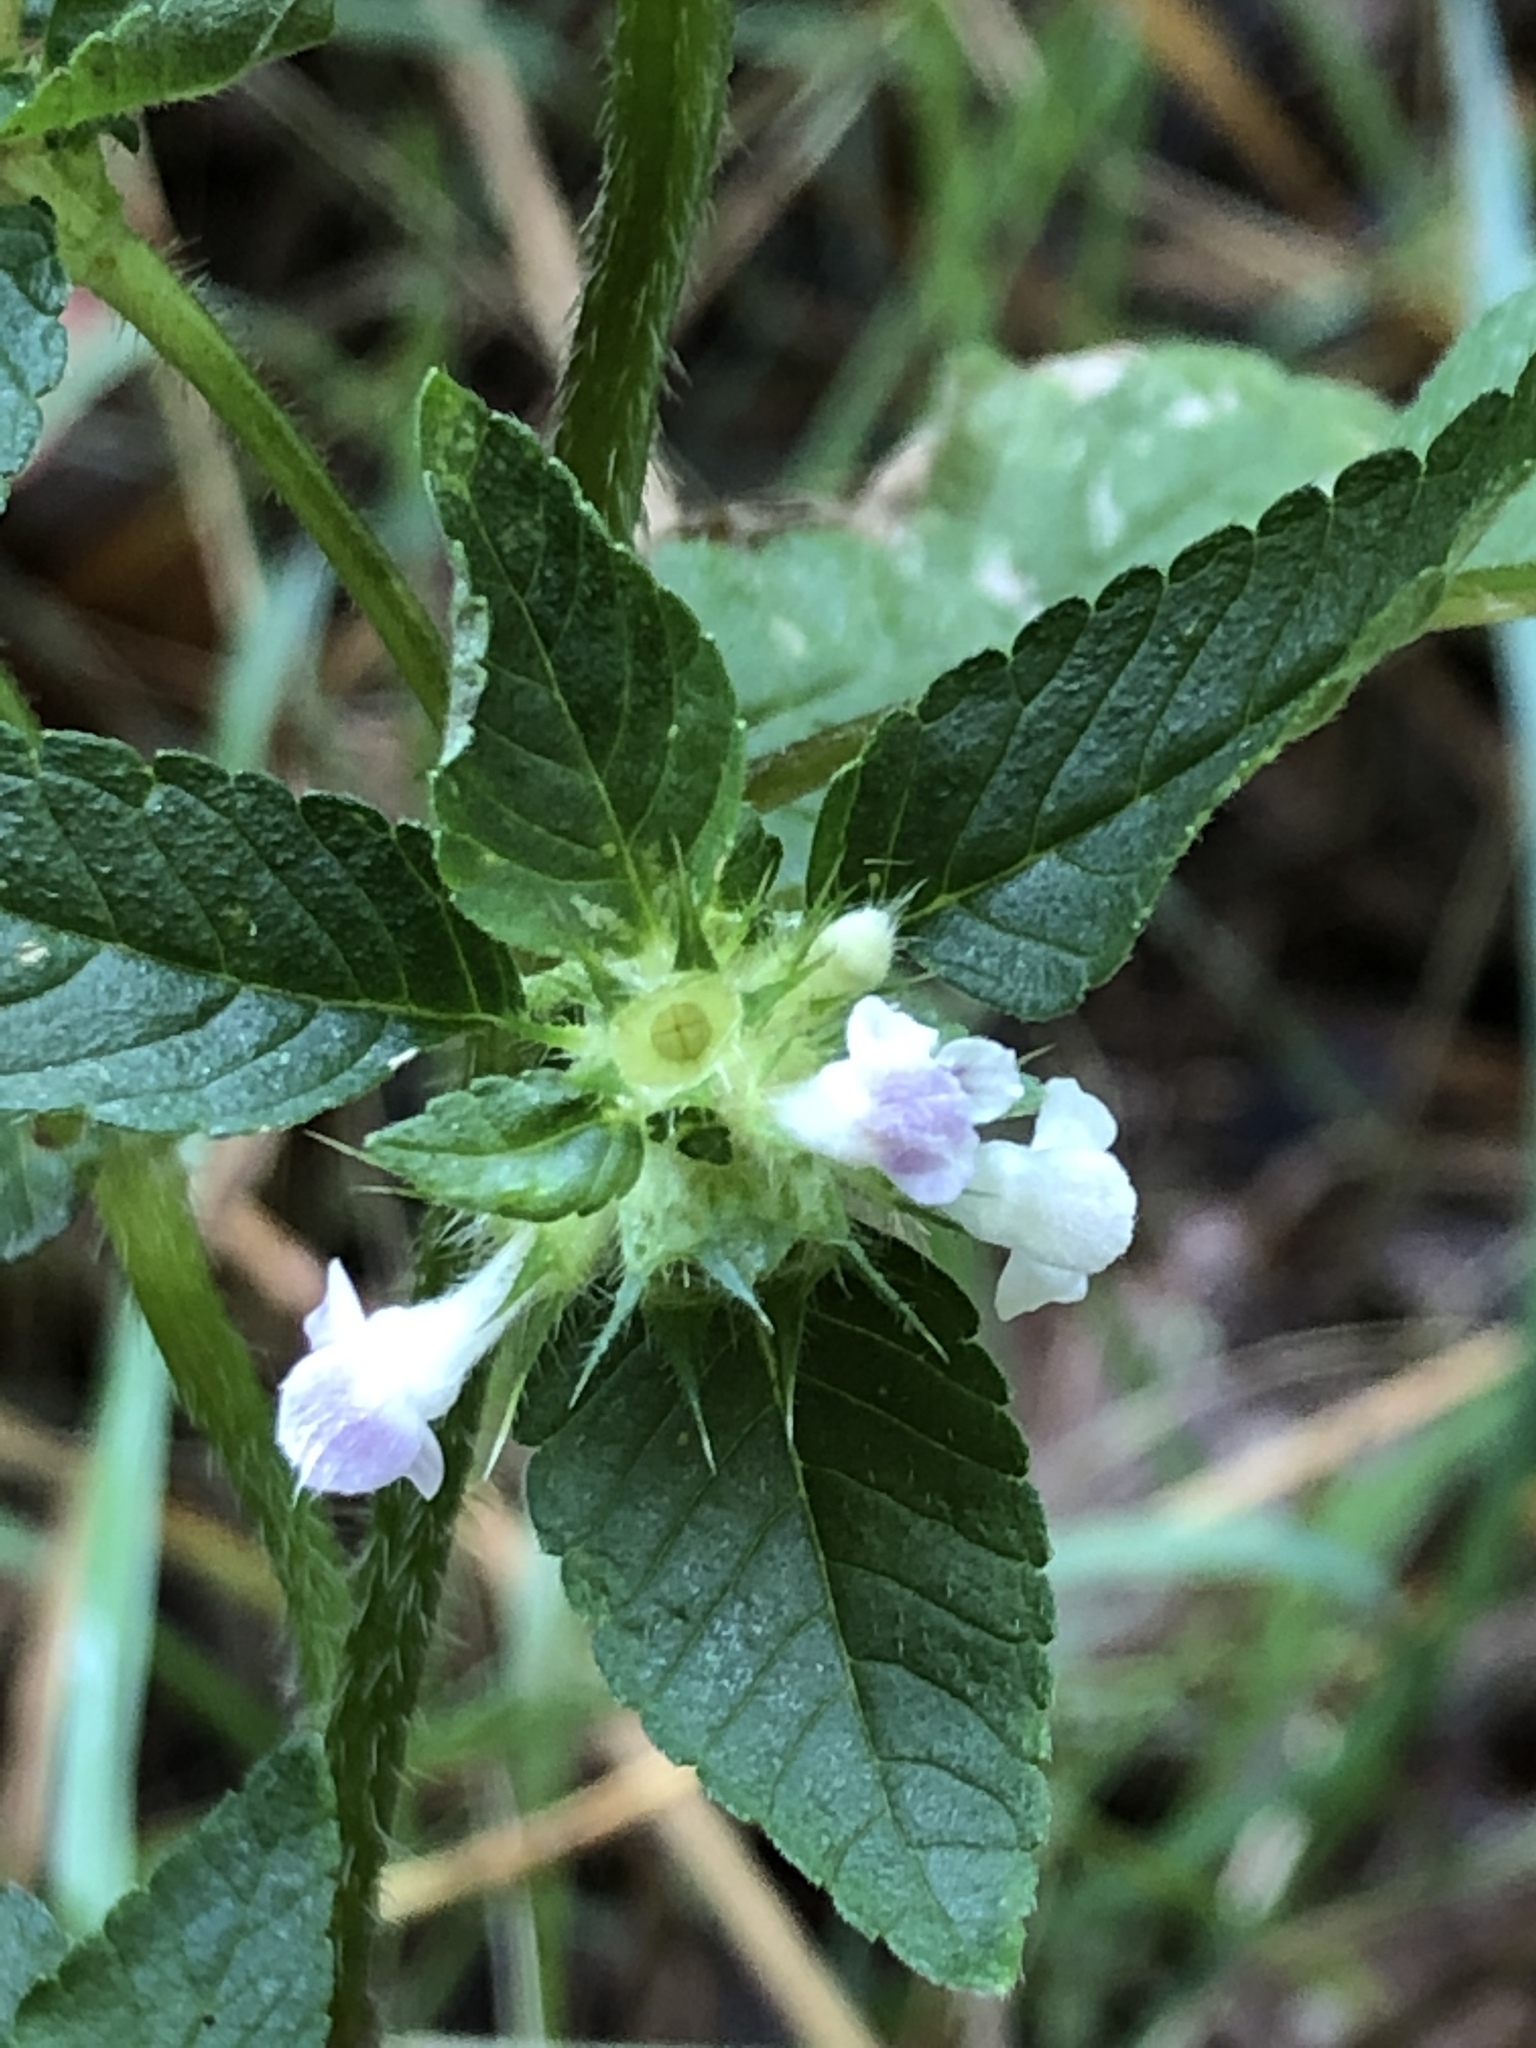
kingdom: Plantae
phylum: Tracheophyta
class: Magnoliopsida
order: Lamiales
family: Lamiaceae
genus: Galeopsis
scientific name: Galeopsis tetrahit
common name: Common hemp-nettle
